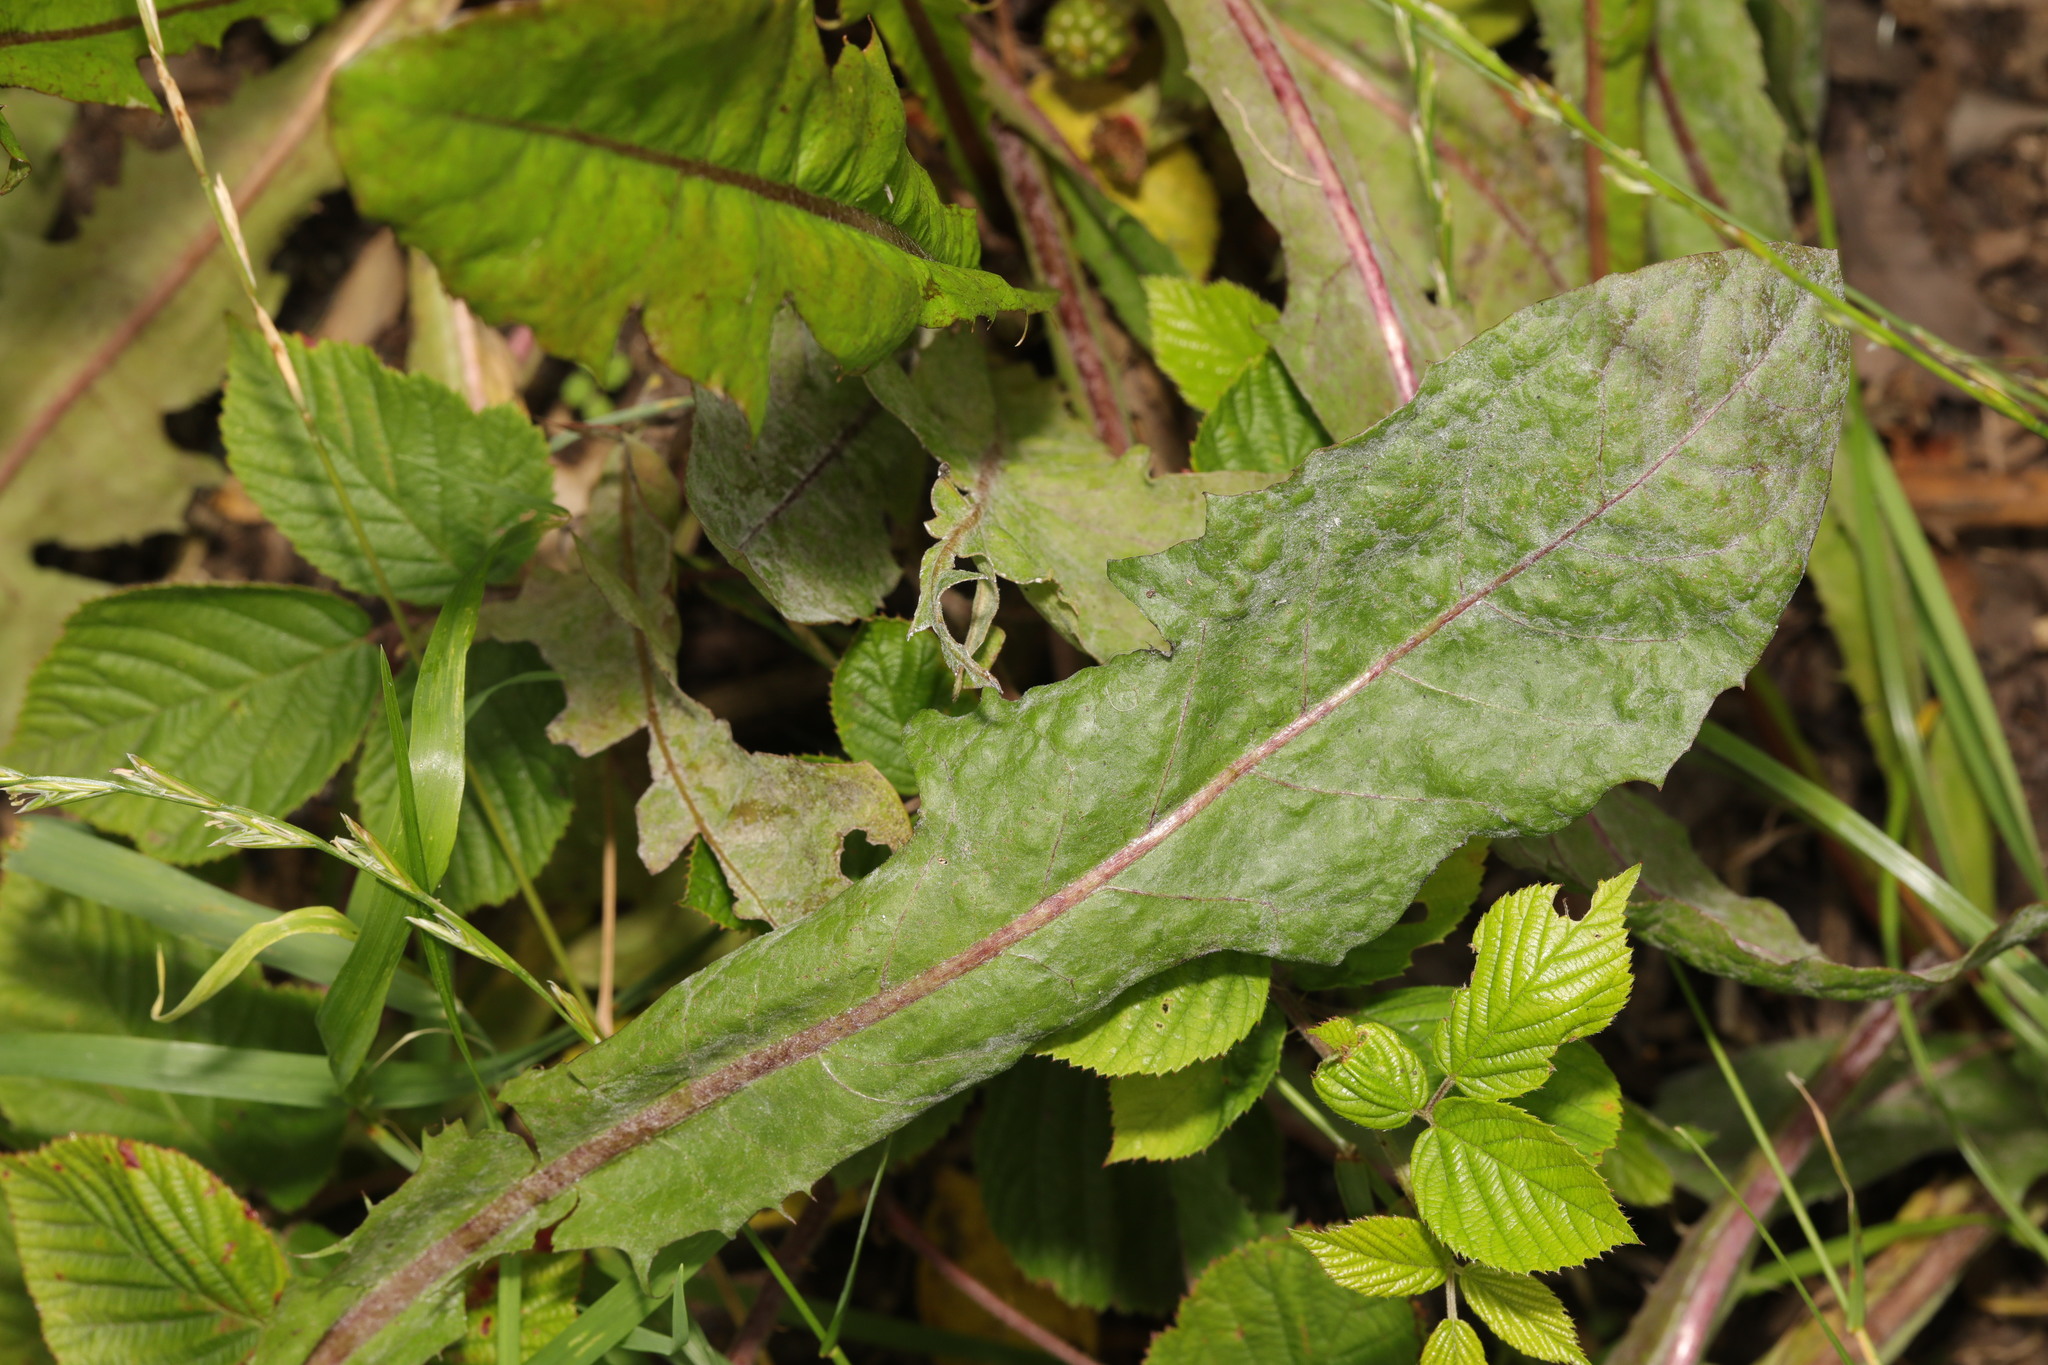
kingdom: Plantae
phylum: Tracheophyta
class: Magnoliopsida
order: Asterales
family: Asteraceae
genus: Taraxacum
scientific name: Taraxacum officinale
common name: Common dandelion
